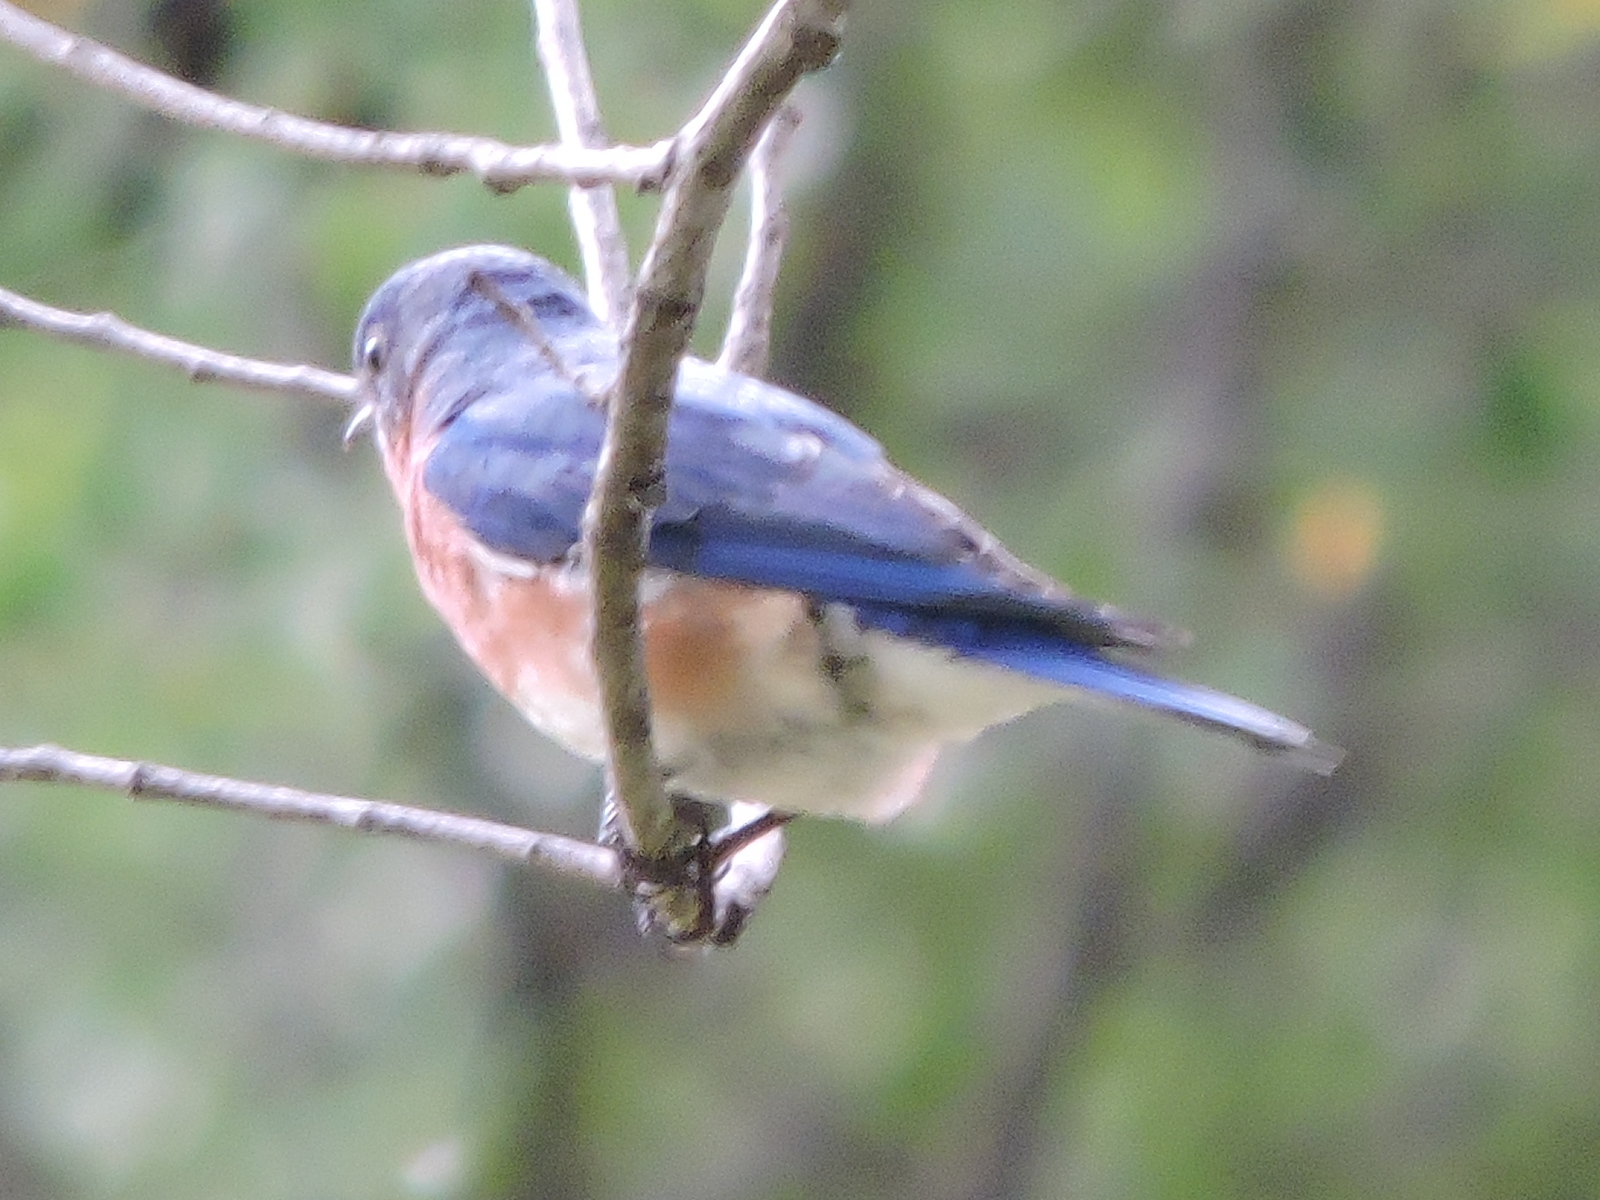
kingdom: Animalia
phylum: Chordata
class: Aves
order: Passeriformes
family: Turdidae
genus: Sialia
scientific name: Sialia sialis
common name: Eastern bluebird
